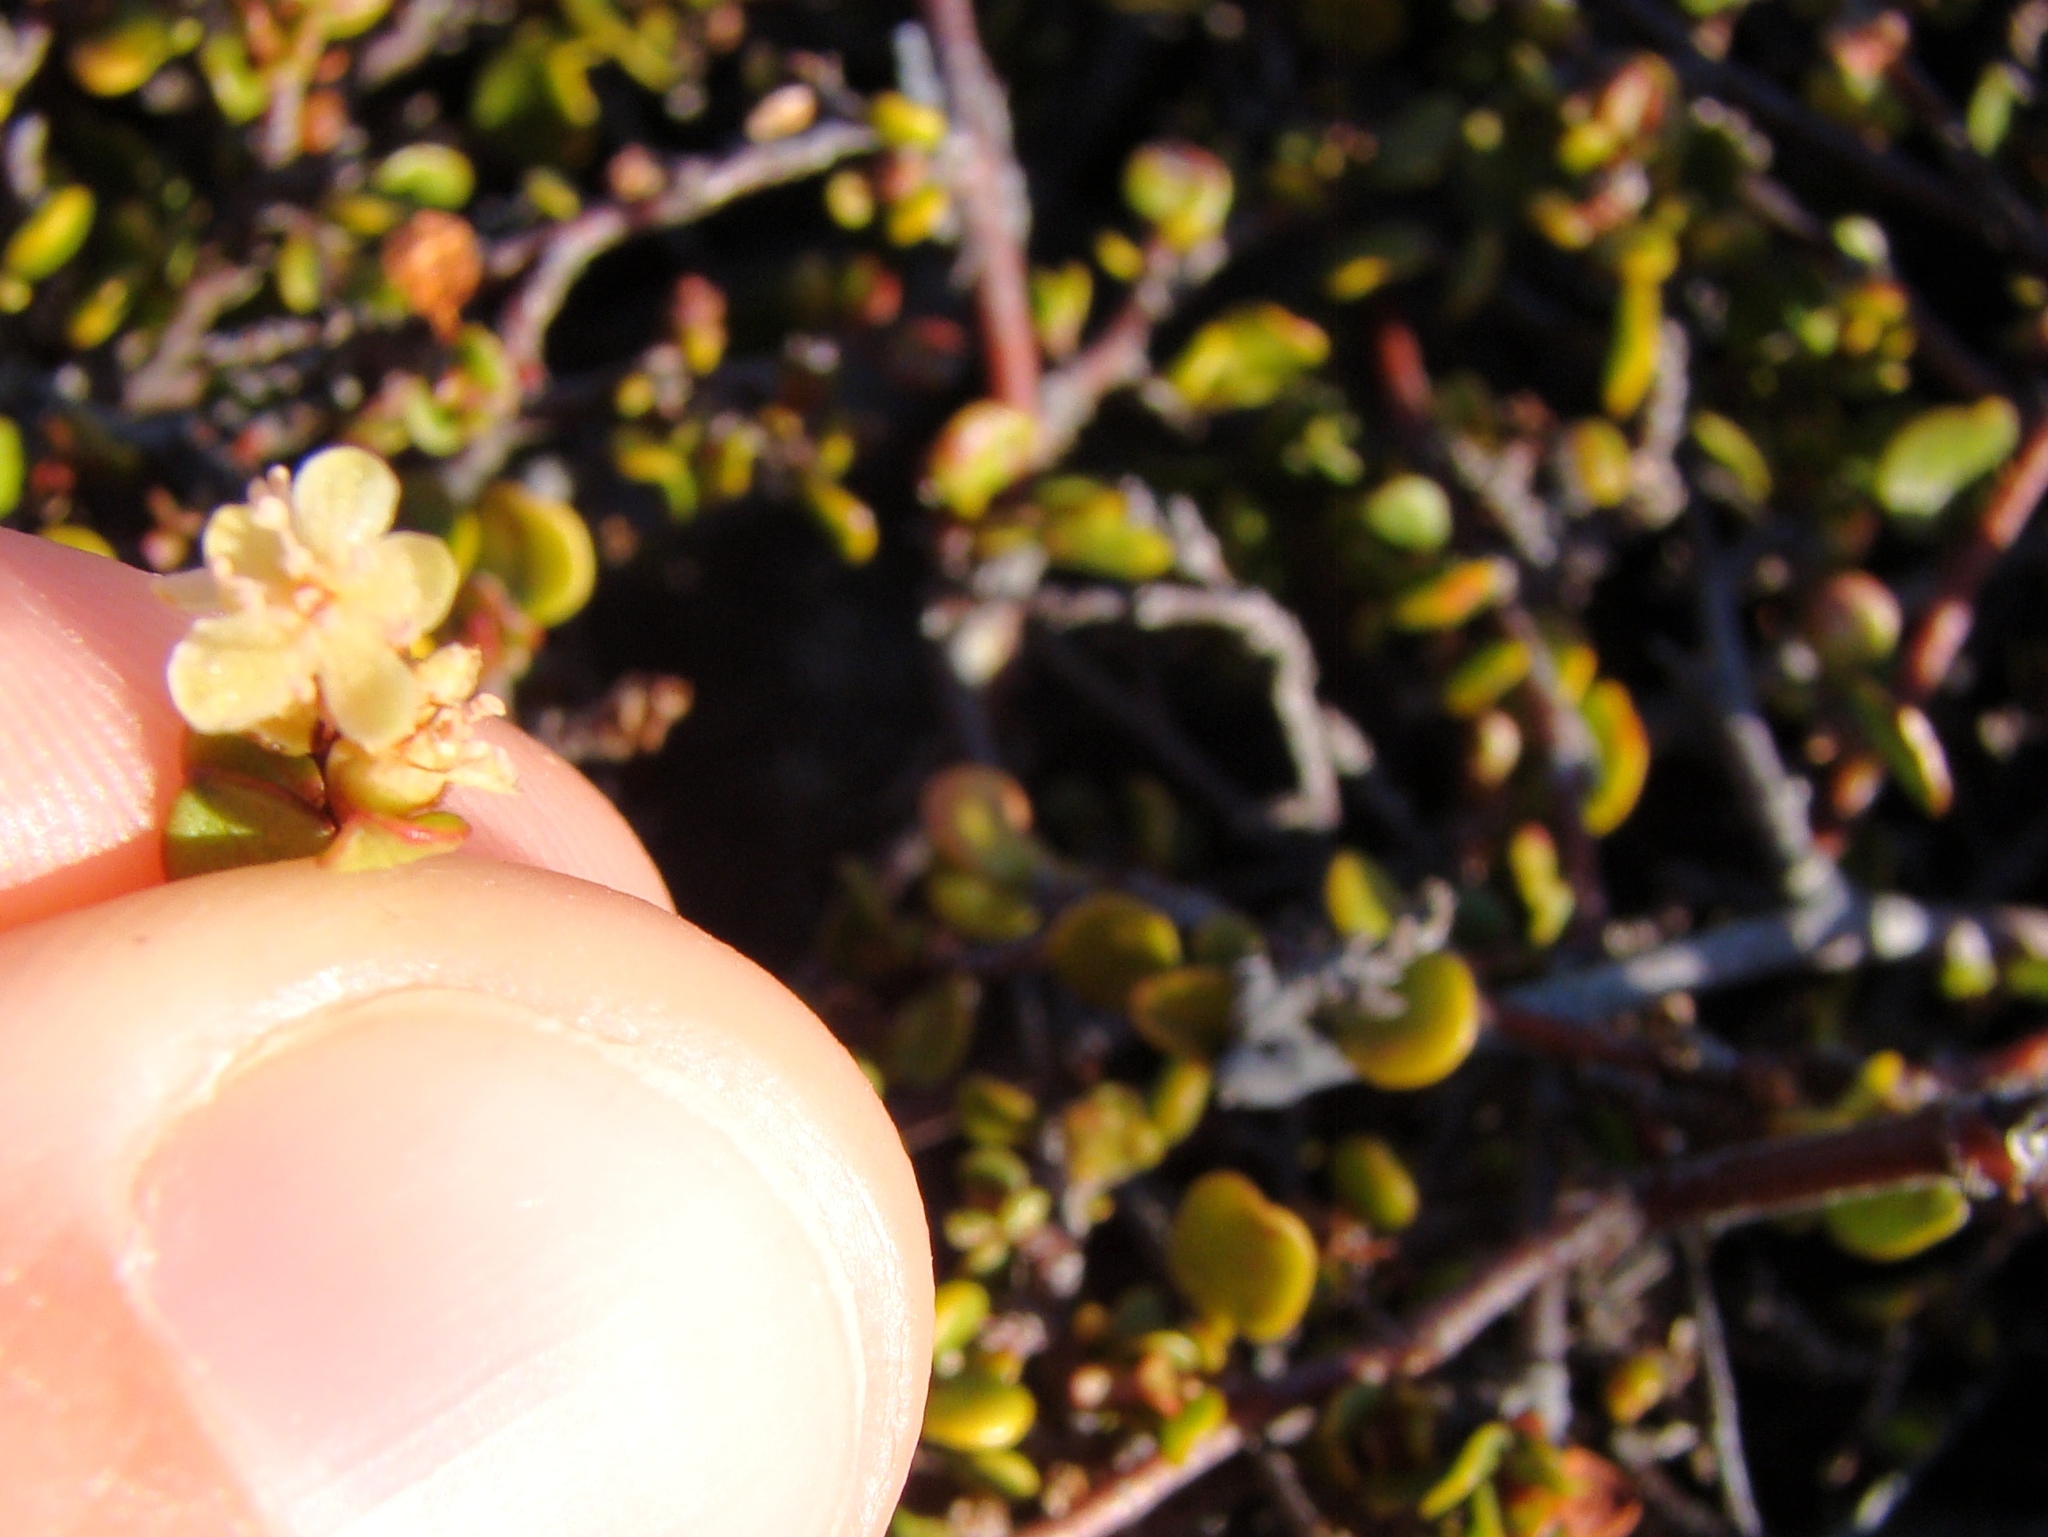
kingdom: Plantae
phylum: Tracheophyta
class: Magnoliopsida
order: Caryophyllales
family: Polygonaceae
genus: Muehlenbeckia
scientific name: Muehlenbeckia complexa
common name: Wireplant
